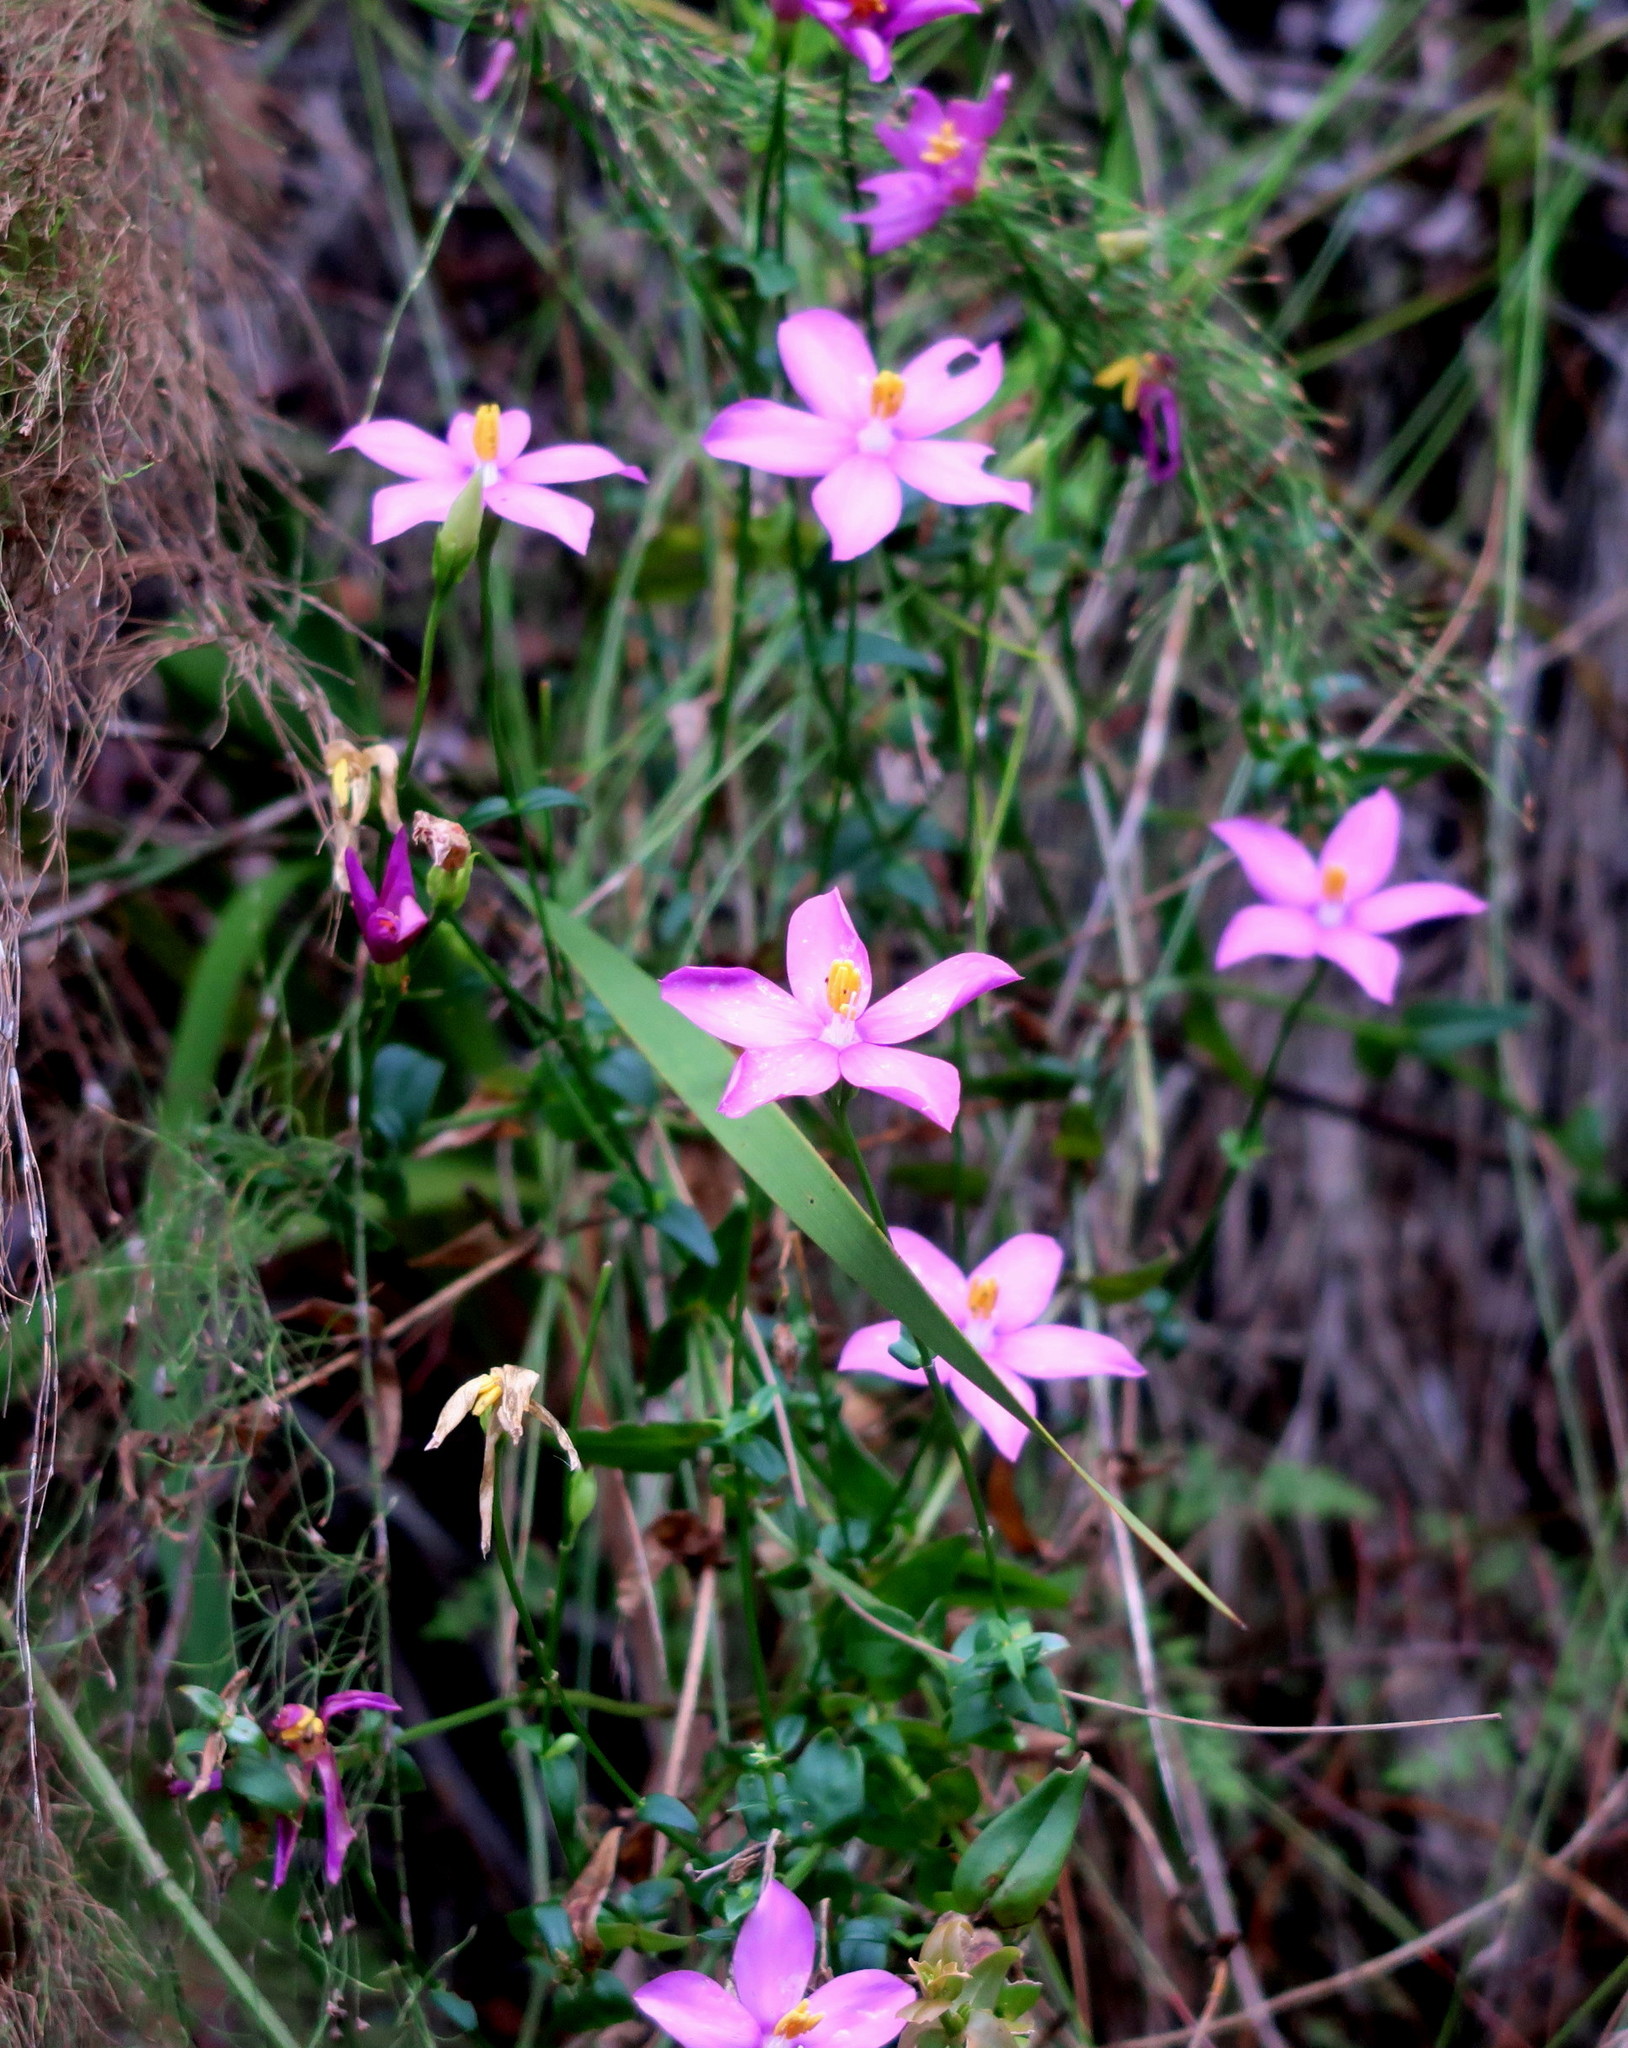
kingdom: Plantae
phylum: Tracheophyta
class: Magnoliopsida
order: Gentianales
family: Gentianaceae
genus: Chironia
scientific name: Chironia melampyrifolia
